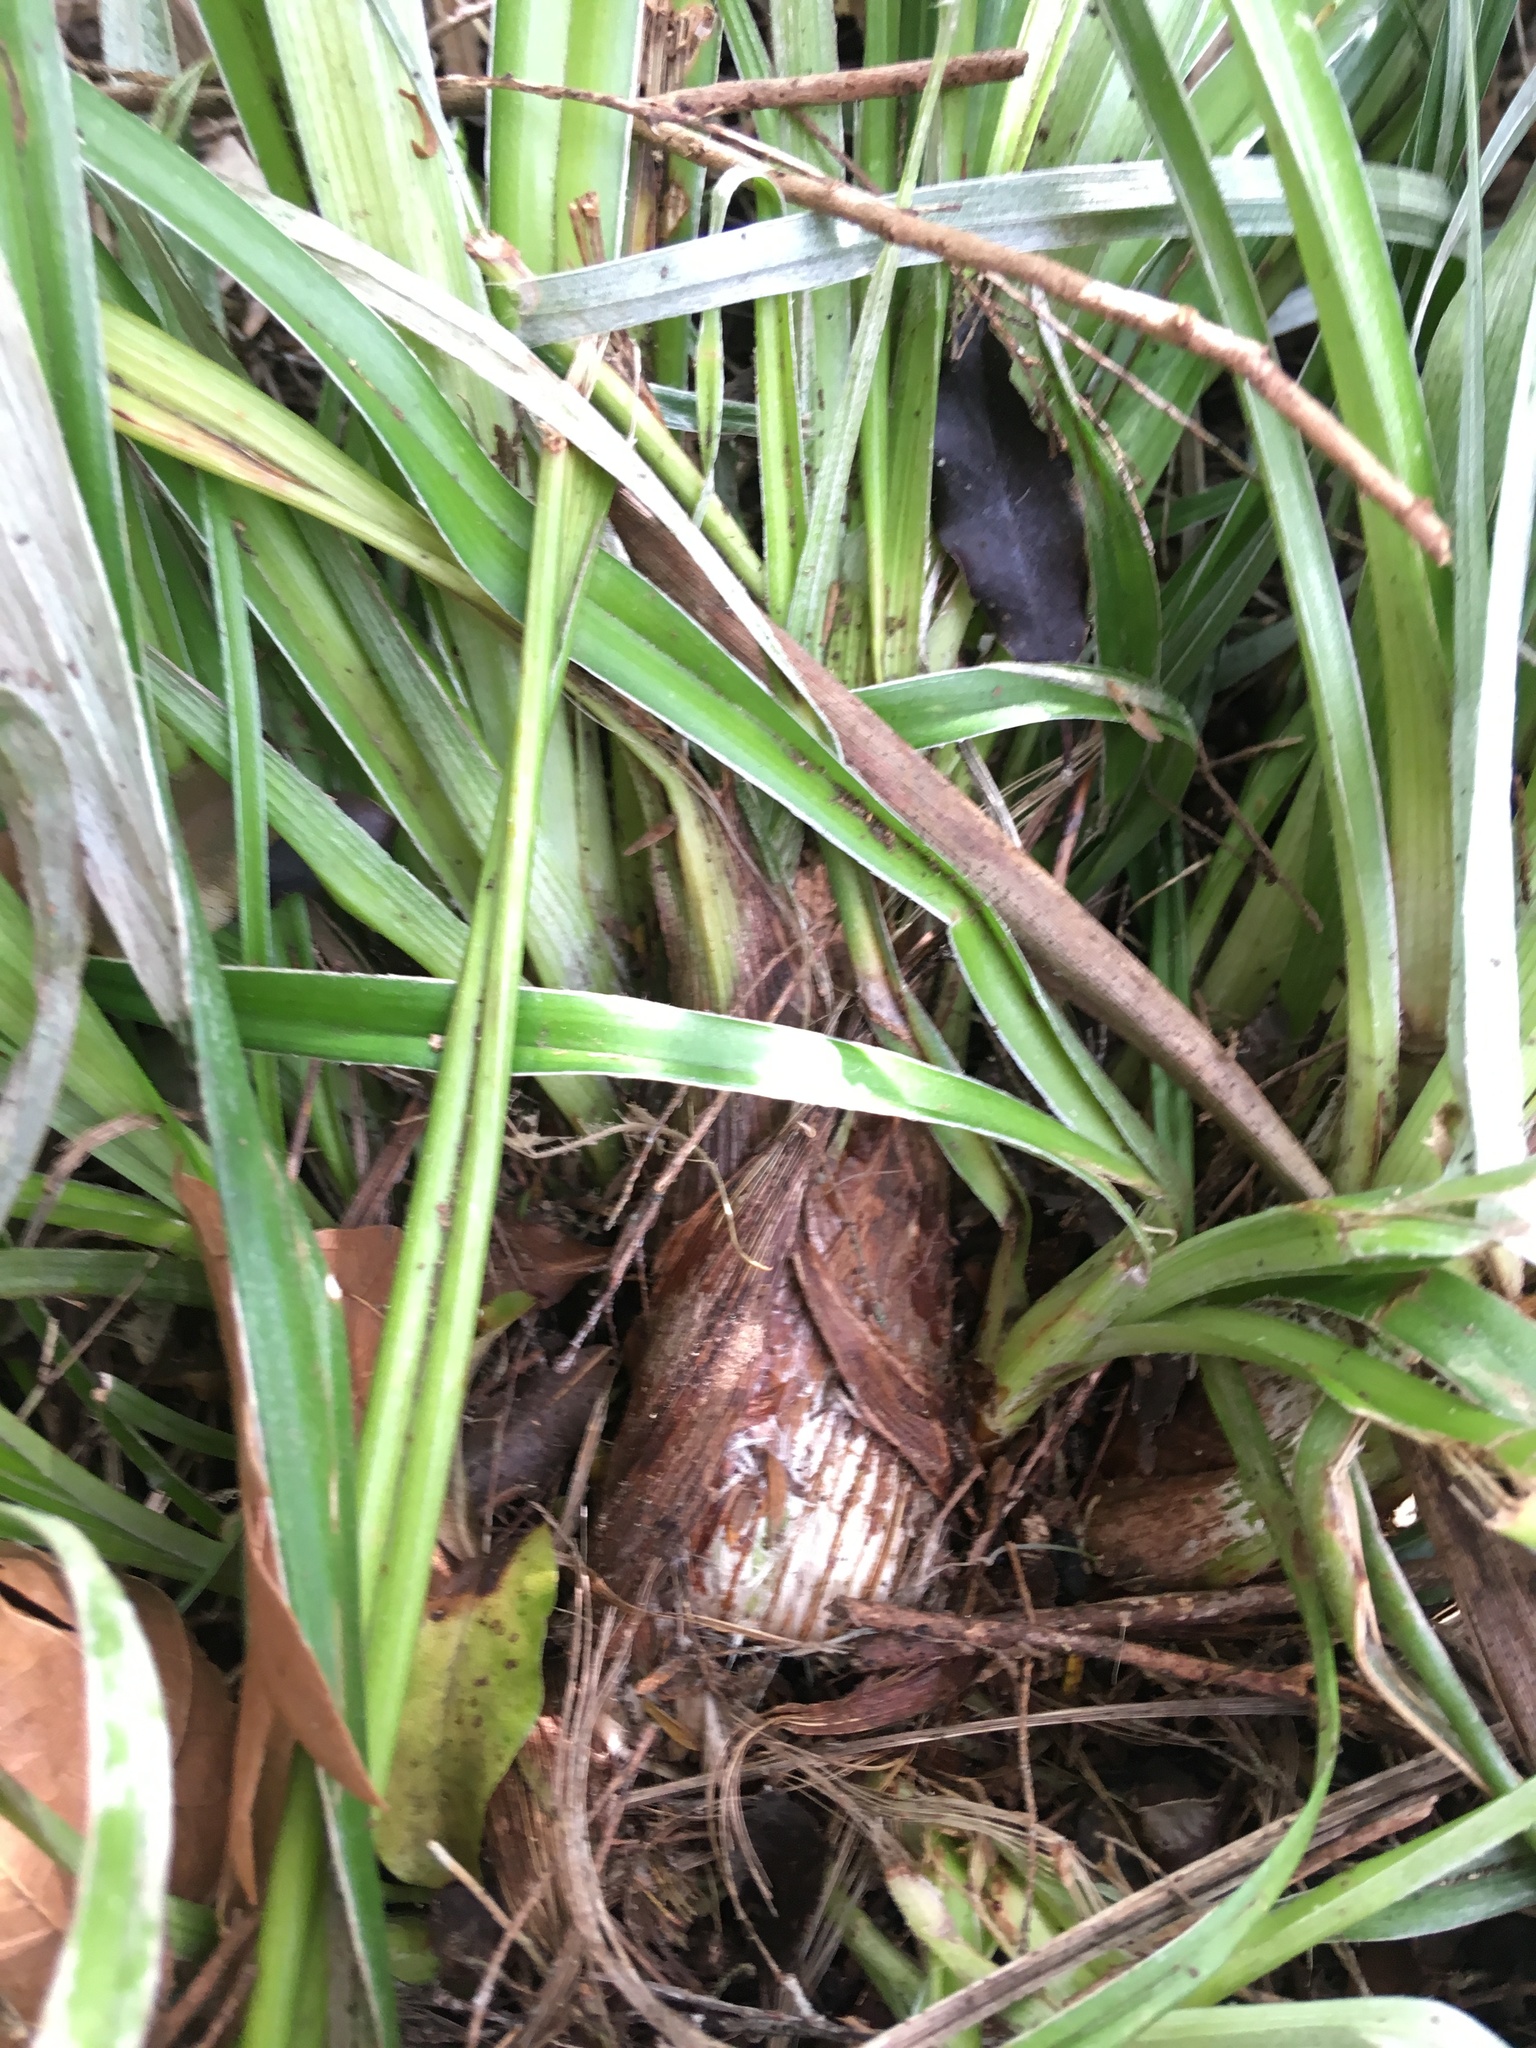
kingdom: Plantae
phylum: Tracheophyta
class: Liliopsida
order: Asparagales
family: Asteliaceae
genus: Astelia
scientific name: Astelia banksii
